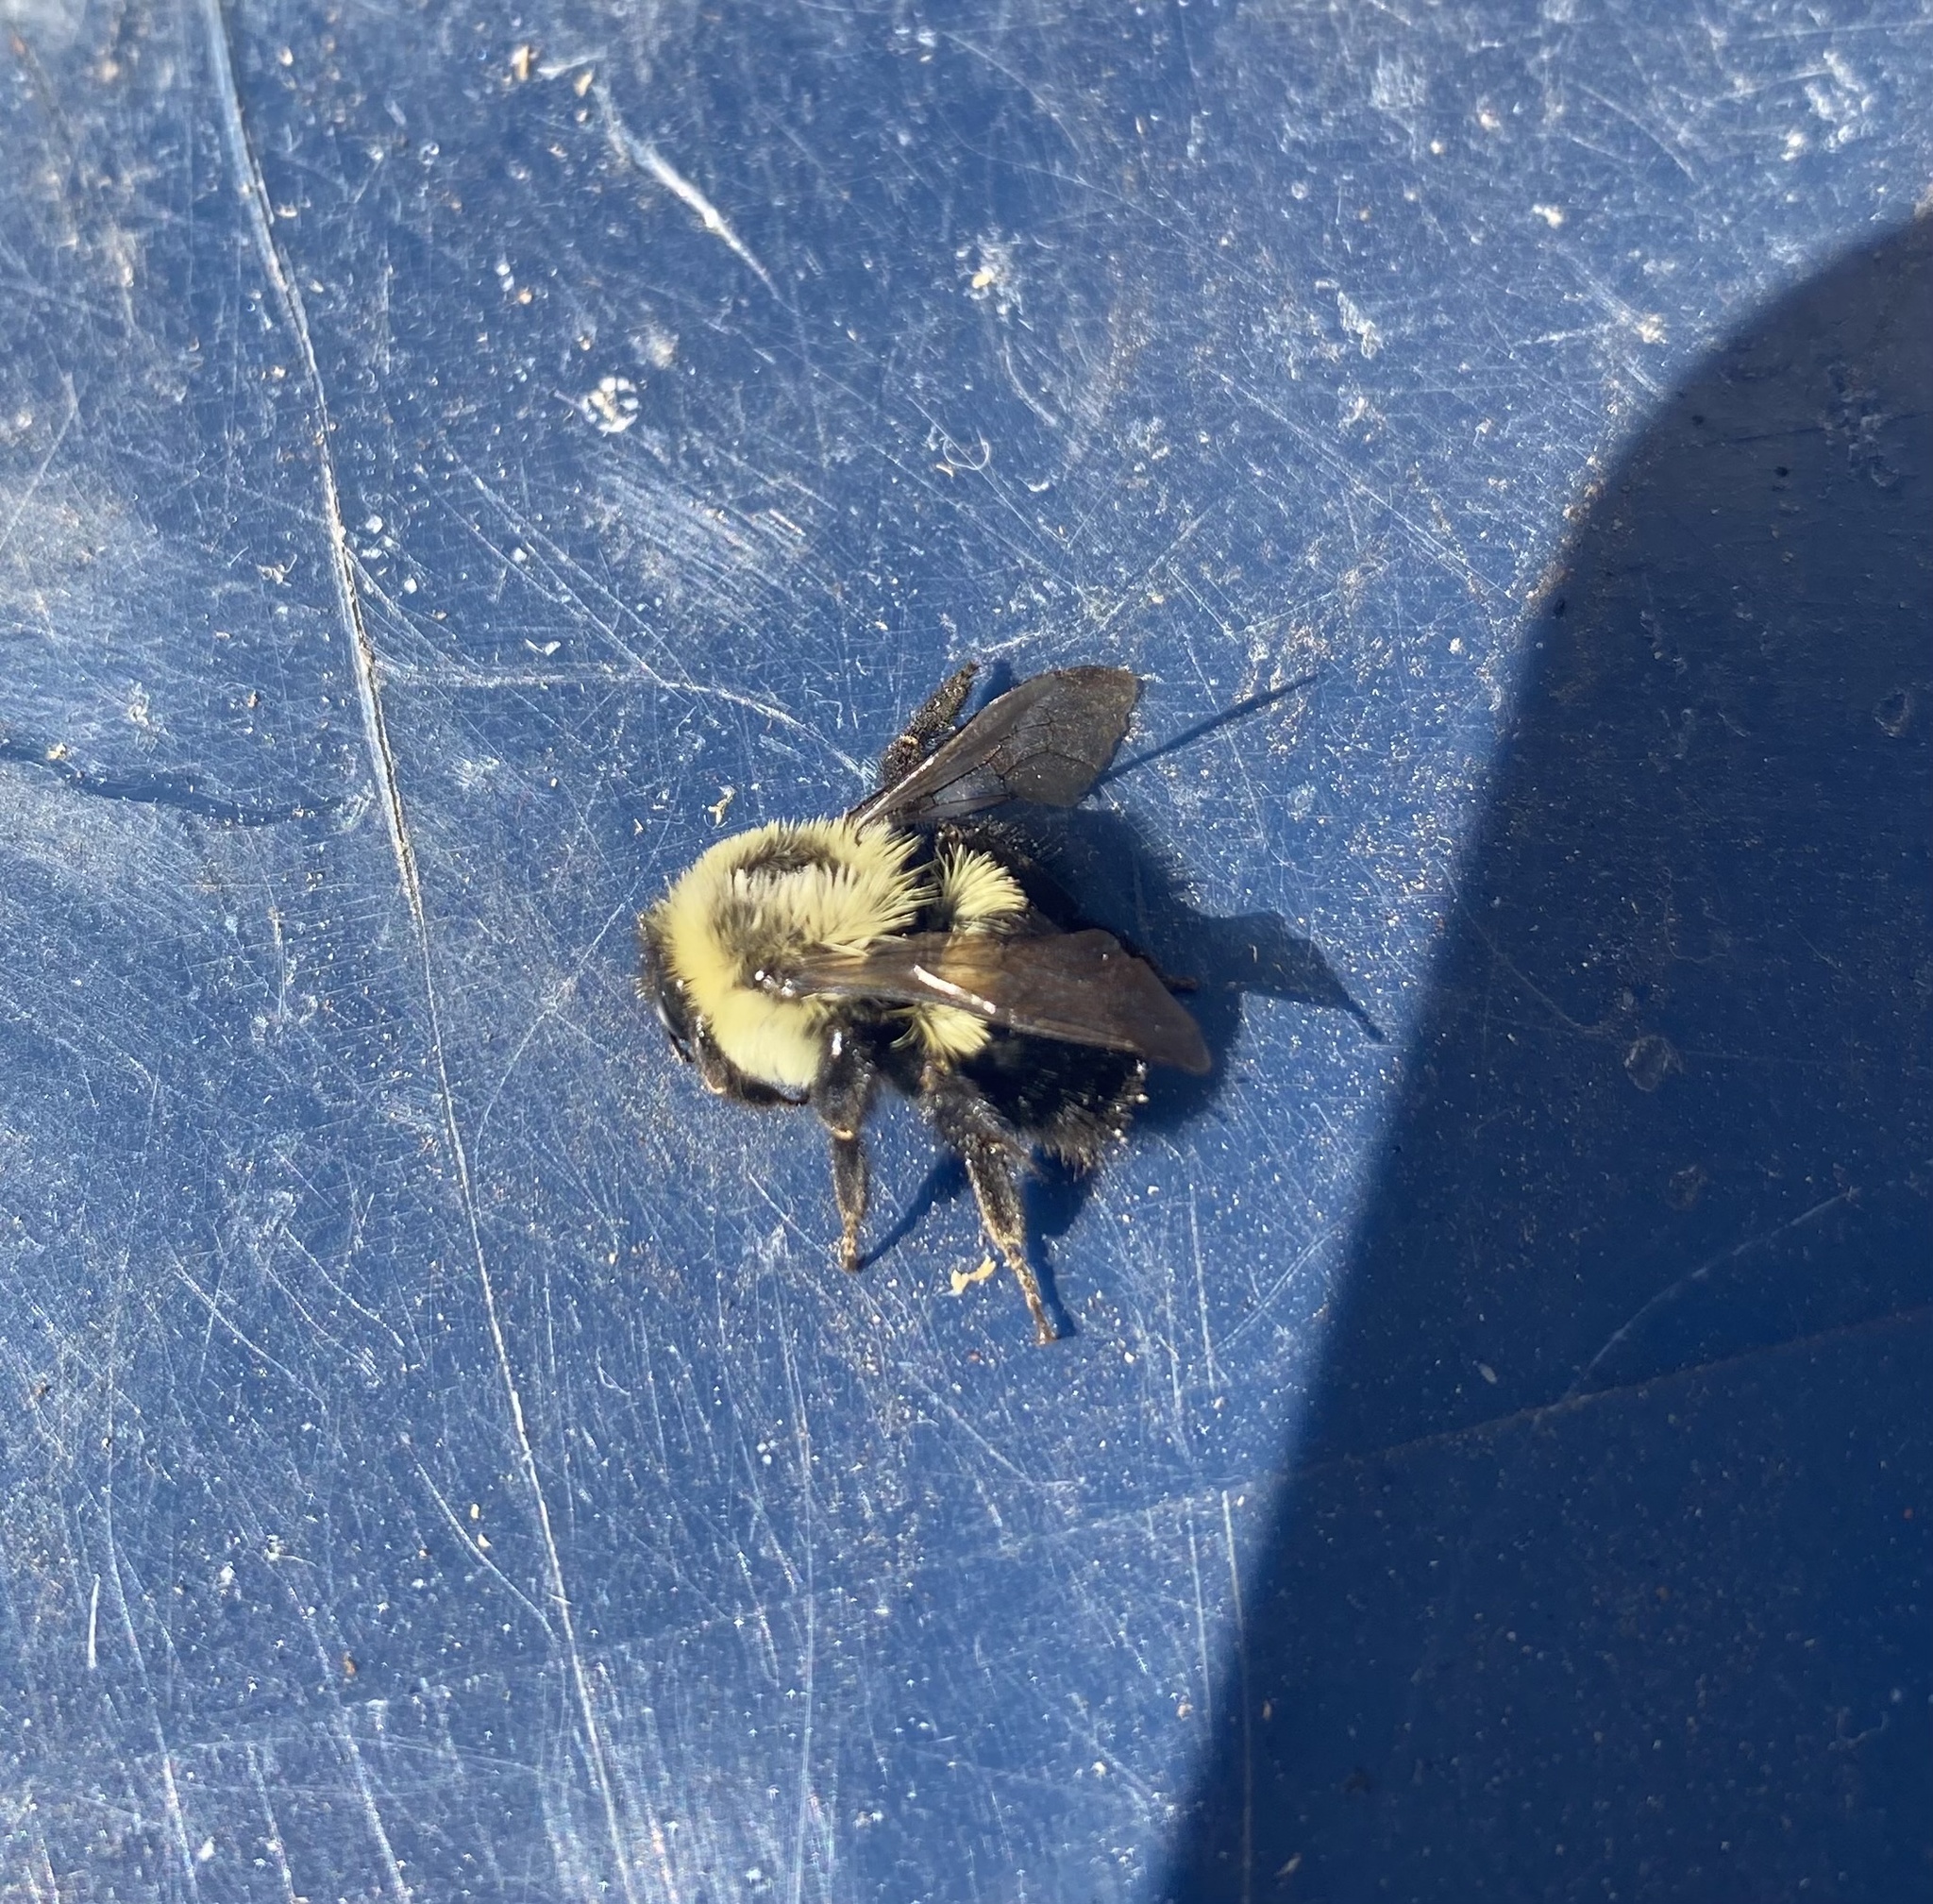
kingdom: Animalia
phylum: Arthropoda
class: Insecta
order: Hymenoptera
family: Apidae
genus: Bombus
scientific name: Bombus impatiens
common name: Common eastern bumble bee
